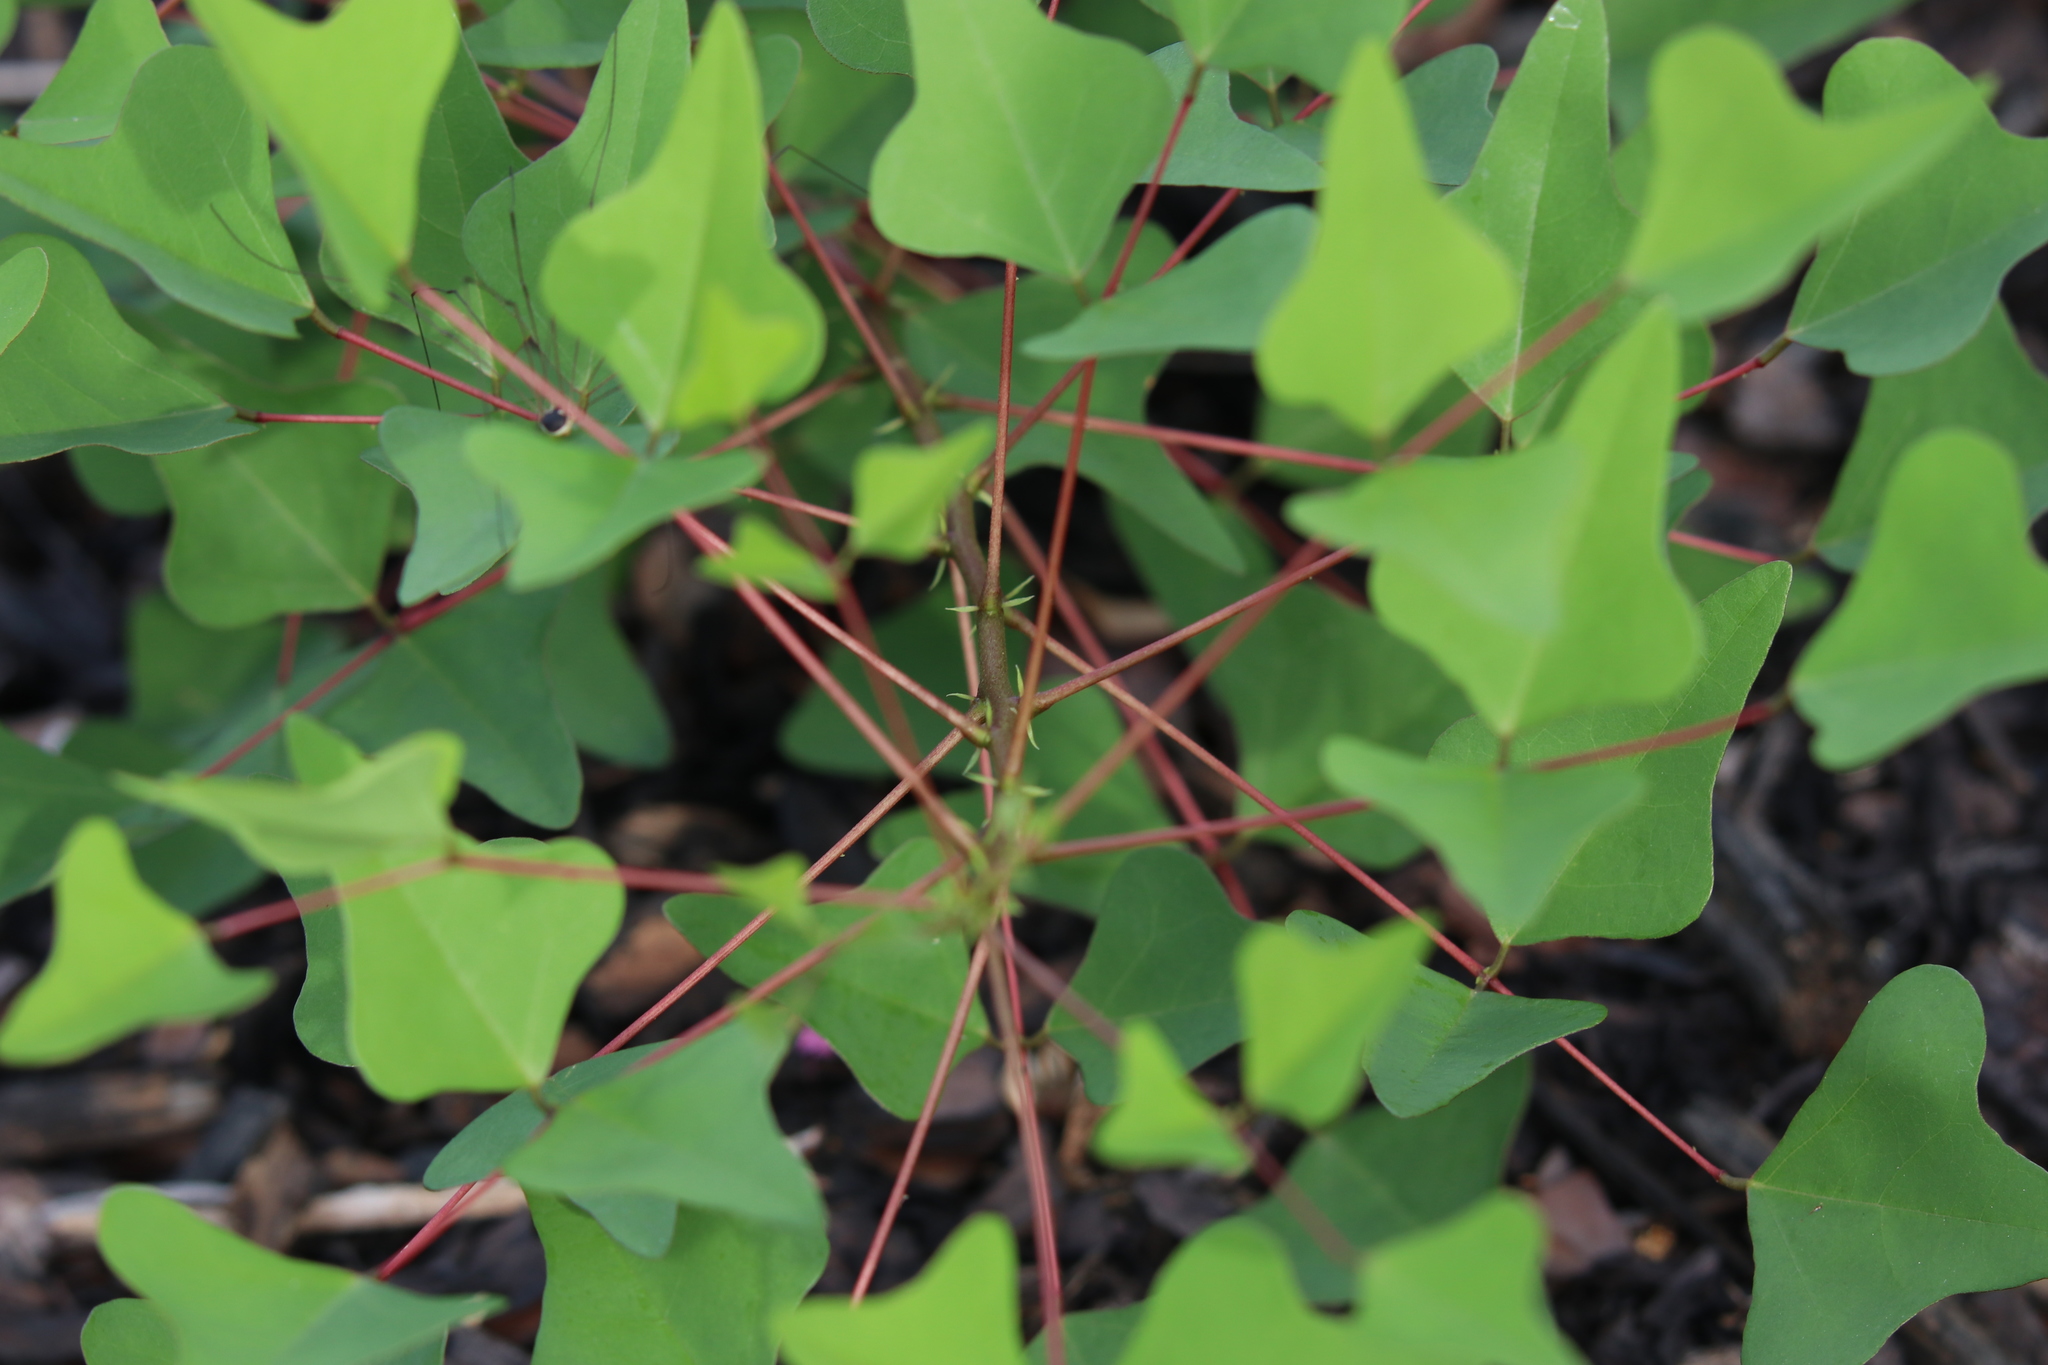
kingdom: Plantae
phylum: Tracheophyta
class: Magnoliopsida
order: Fabales
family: Fabaceae
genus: Erythrina
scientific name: Erythrina herbacea
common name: Coral-bean
